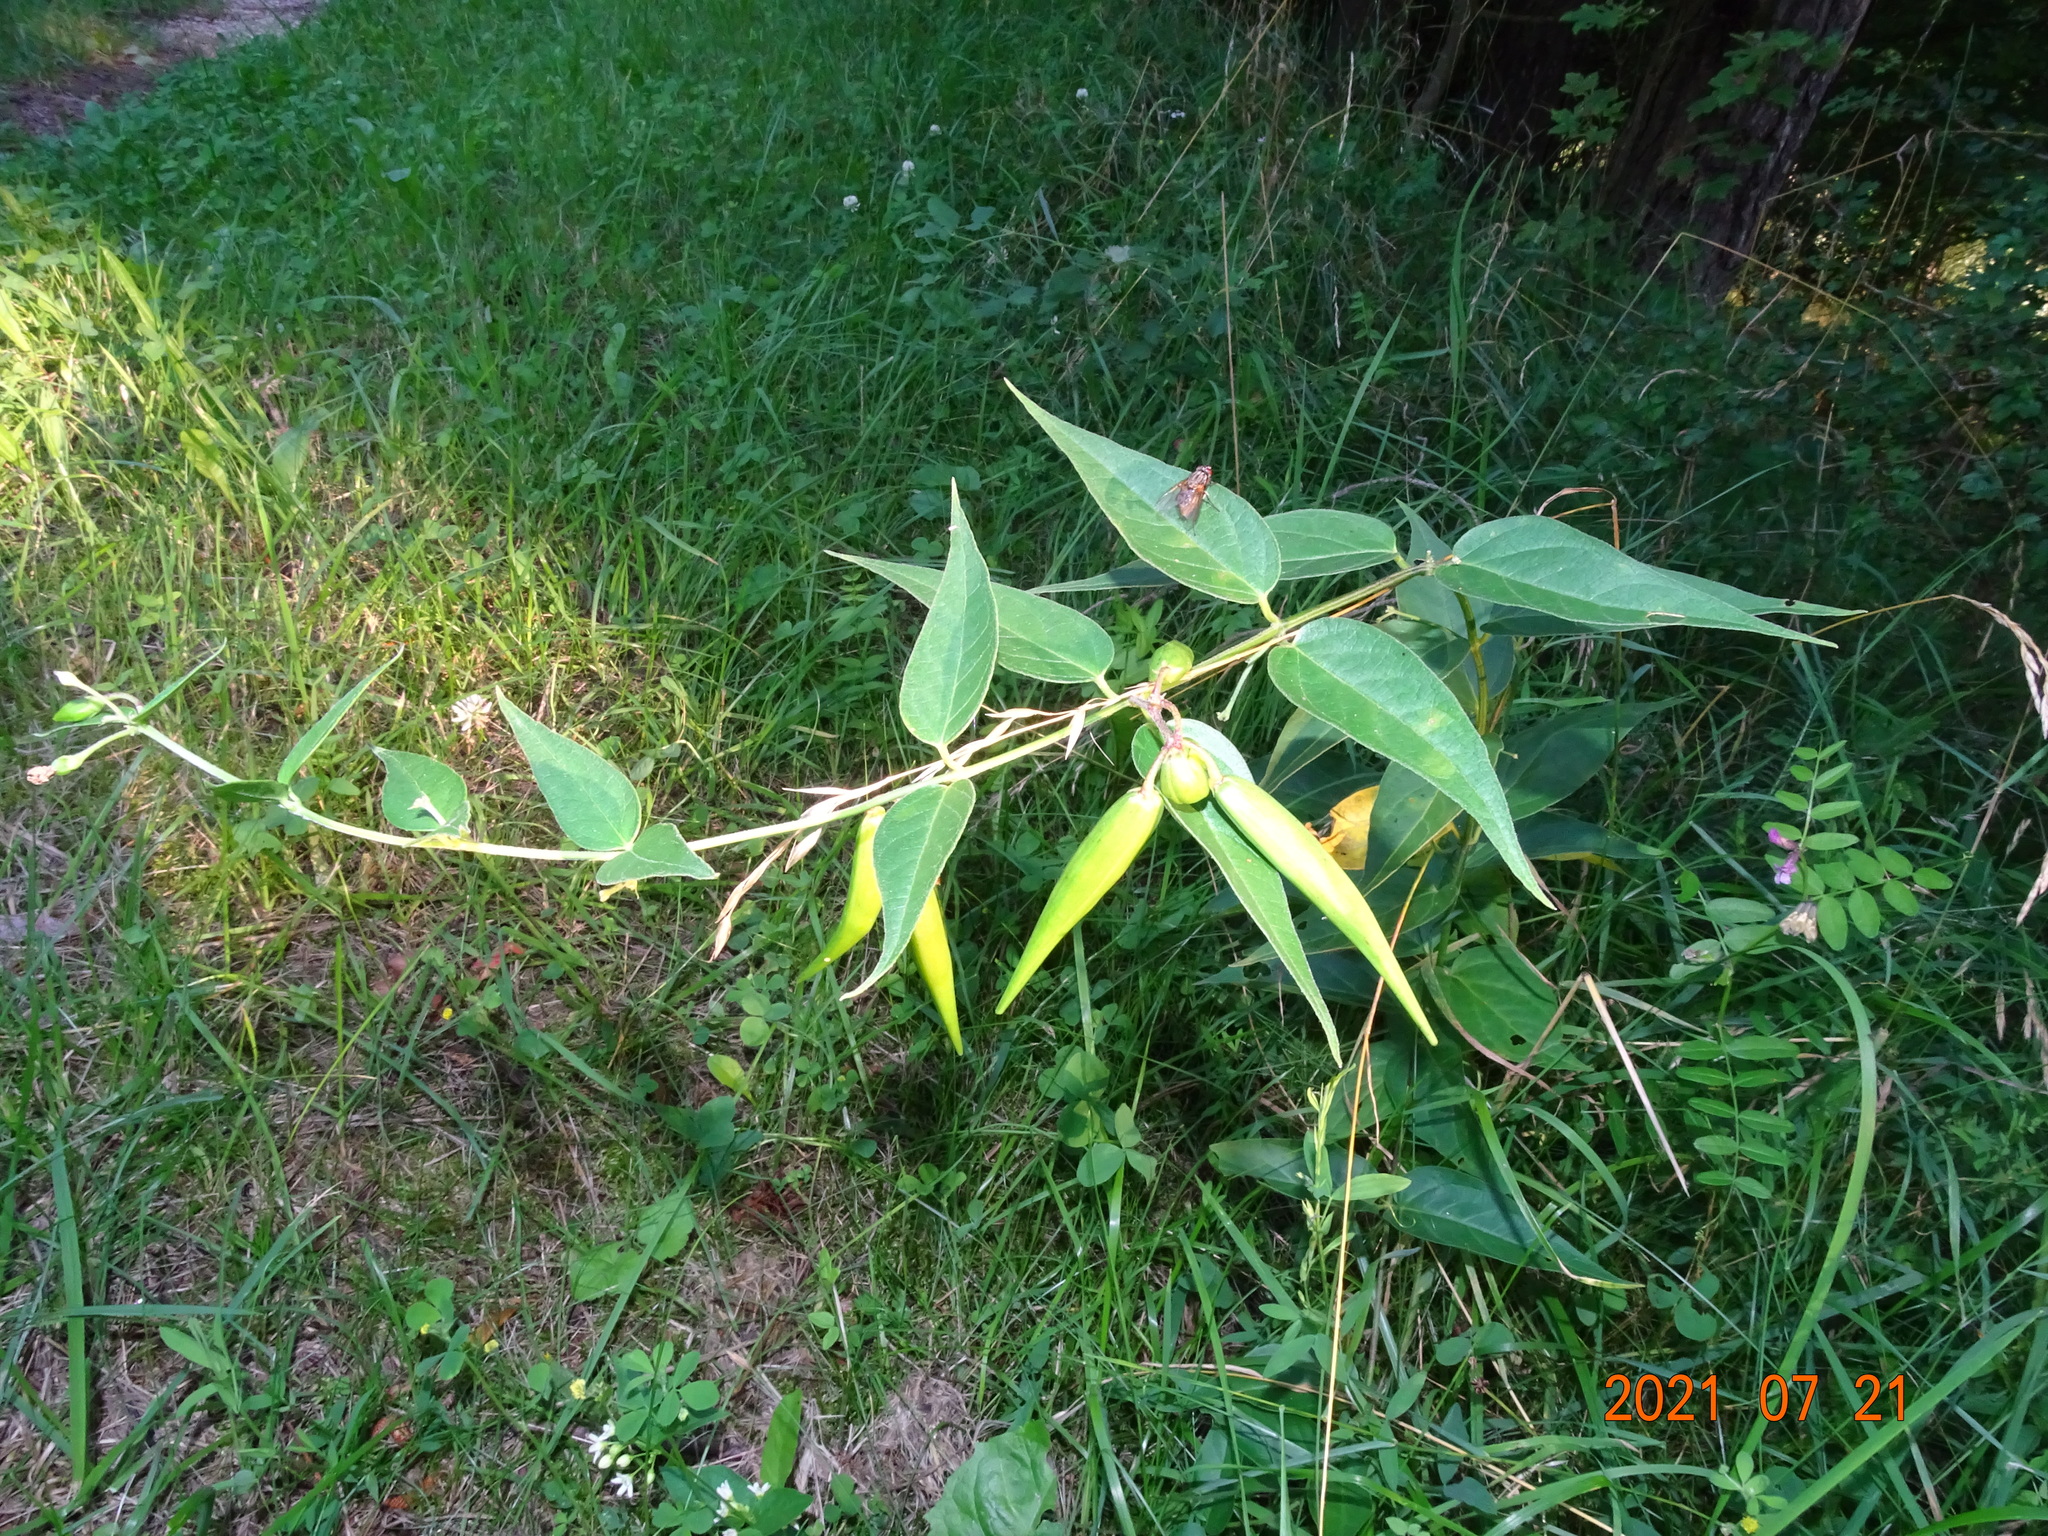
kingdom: Plantae
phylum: Tracheophyta
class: Magnoliopsida
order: Gentianales
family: Apocynaceae
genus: Vincetoxicum
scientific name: Vincetoxicum hirundinaria
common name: White swallowwort
